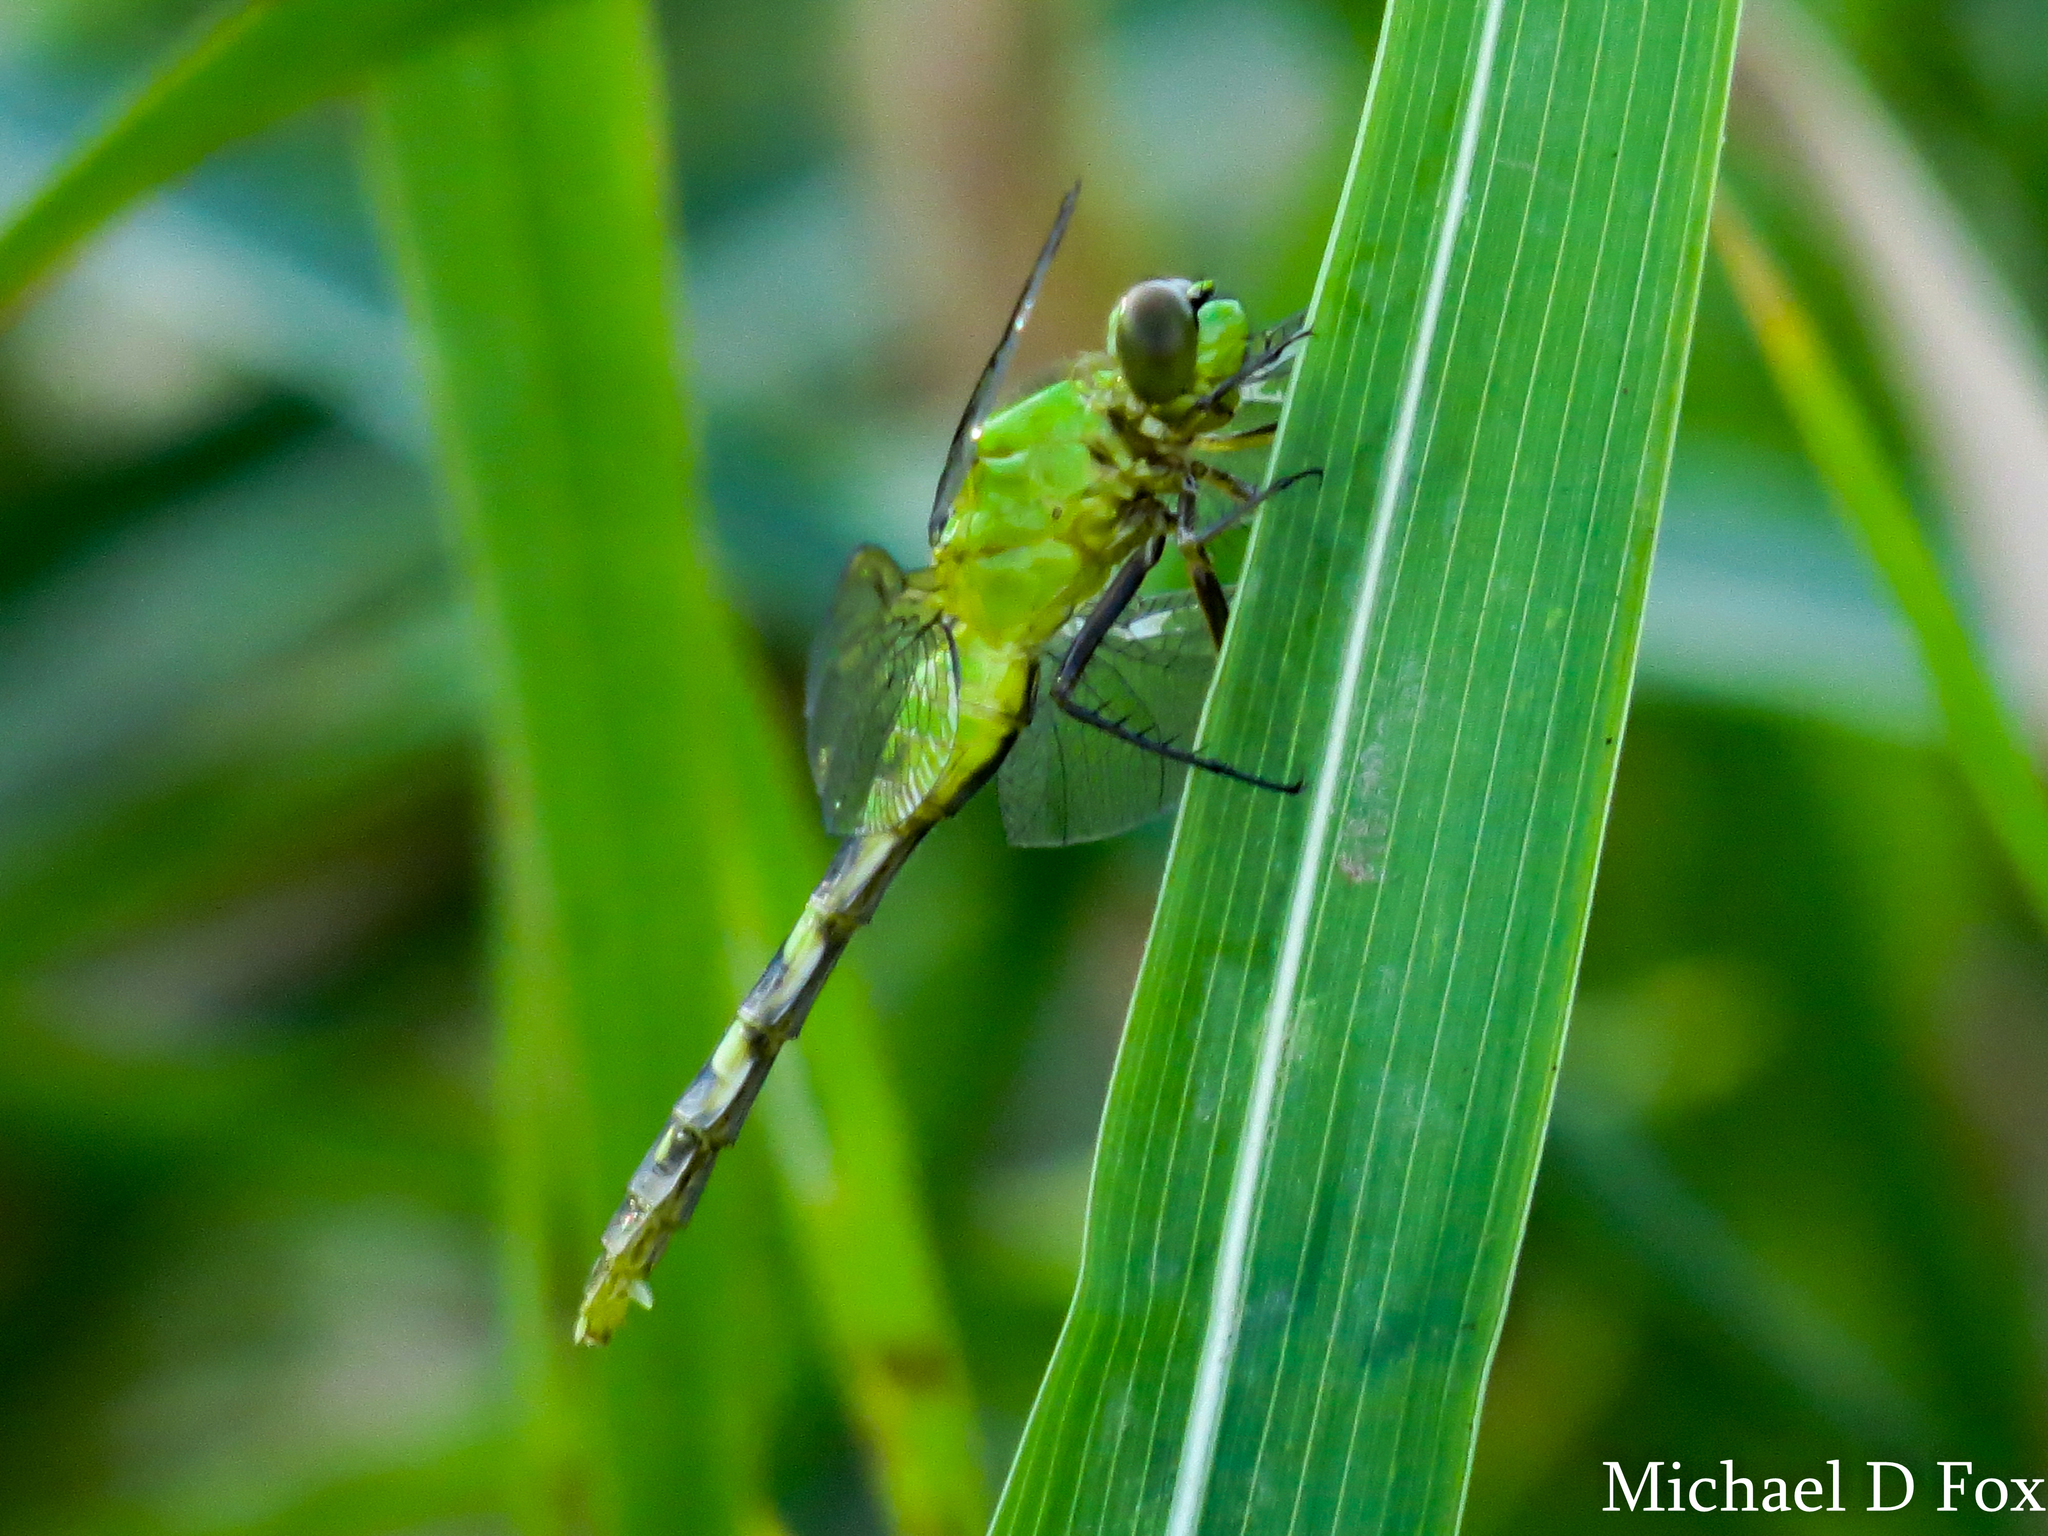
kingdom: Animalia
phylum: Arthropoda
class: Insecta
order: Odonata
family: Libellulidae
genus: Erythemis
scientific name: Erythemis simplicicollis
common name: Eastern pondhawk
